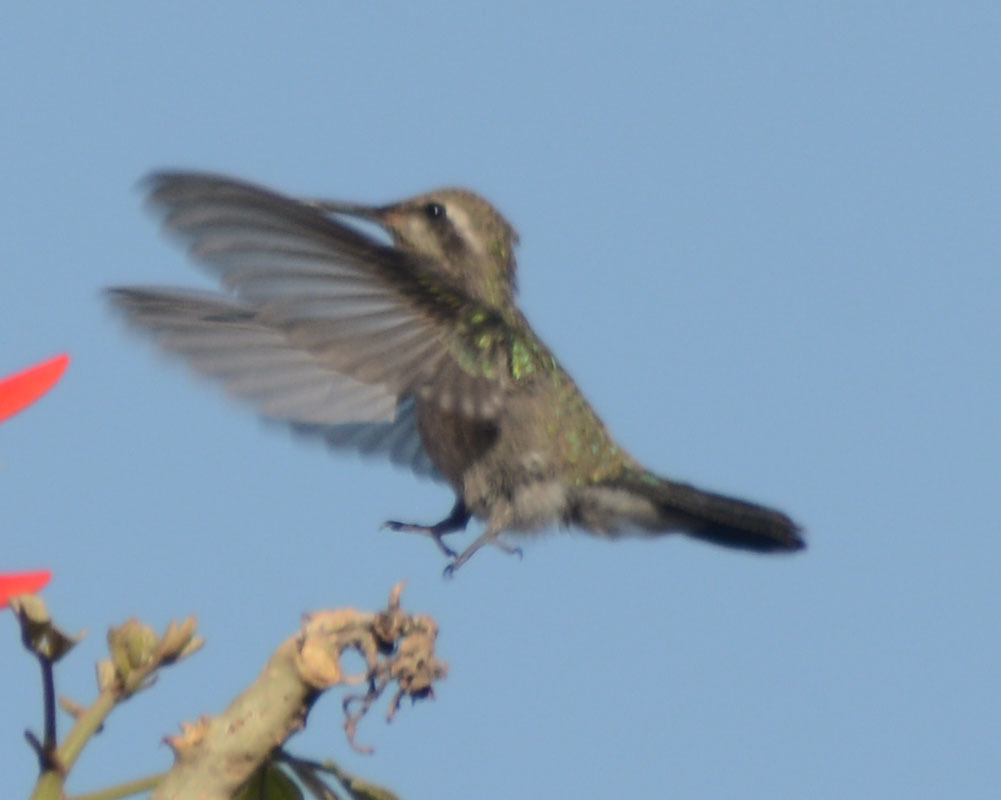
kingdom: Animalia
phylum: Chordata
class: Aves
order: Apodiformes
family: Trochilidae
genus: Cynanthus
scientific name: Cynanthus latirostris
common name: Broad-billed hummingbird
